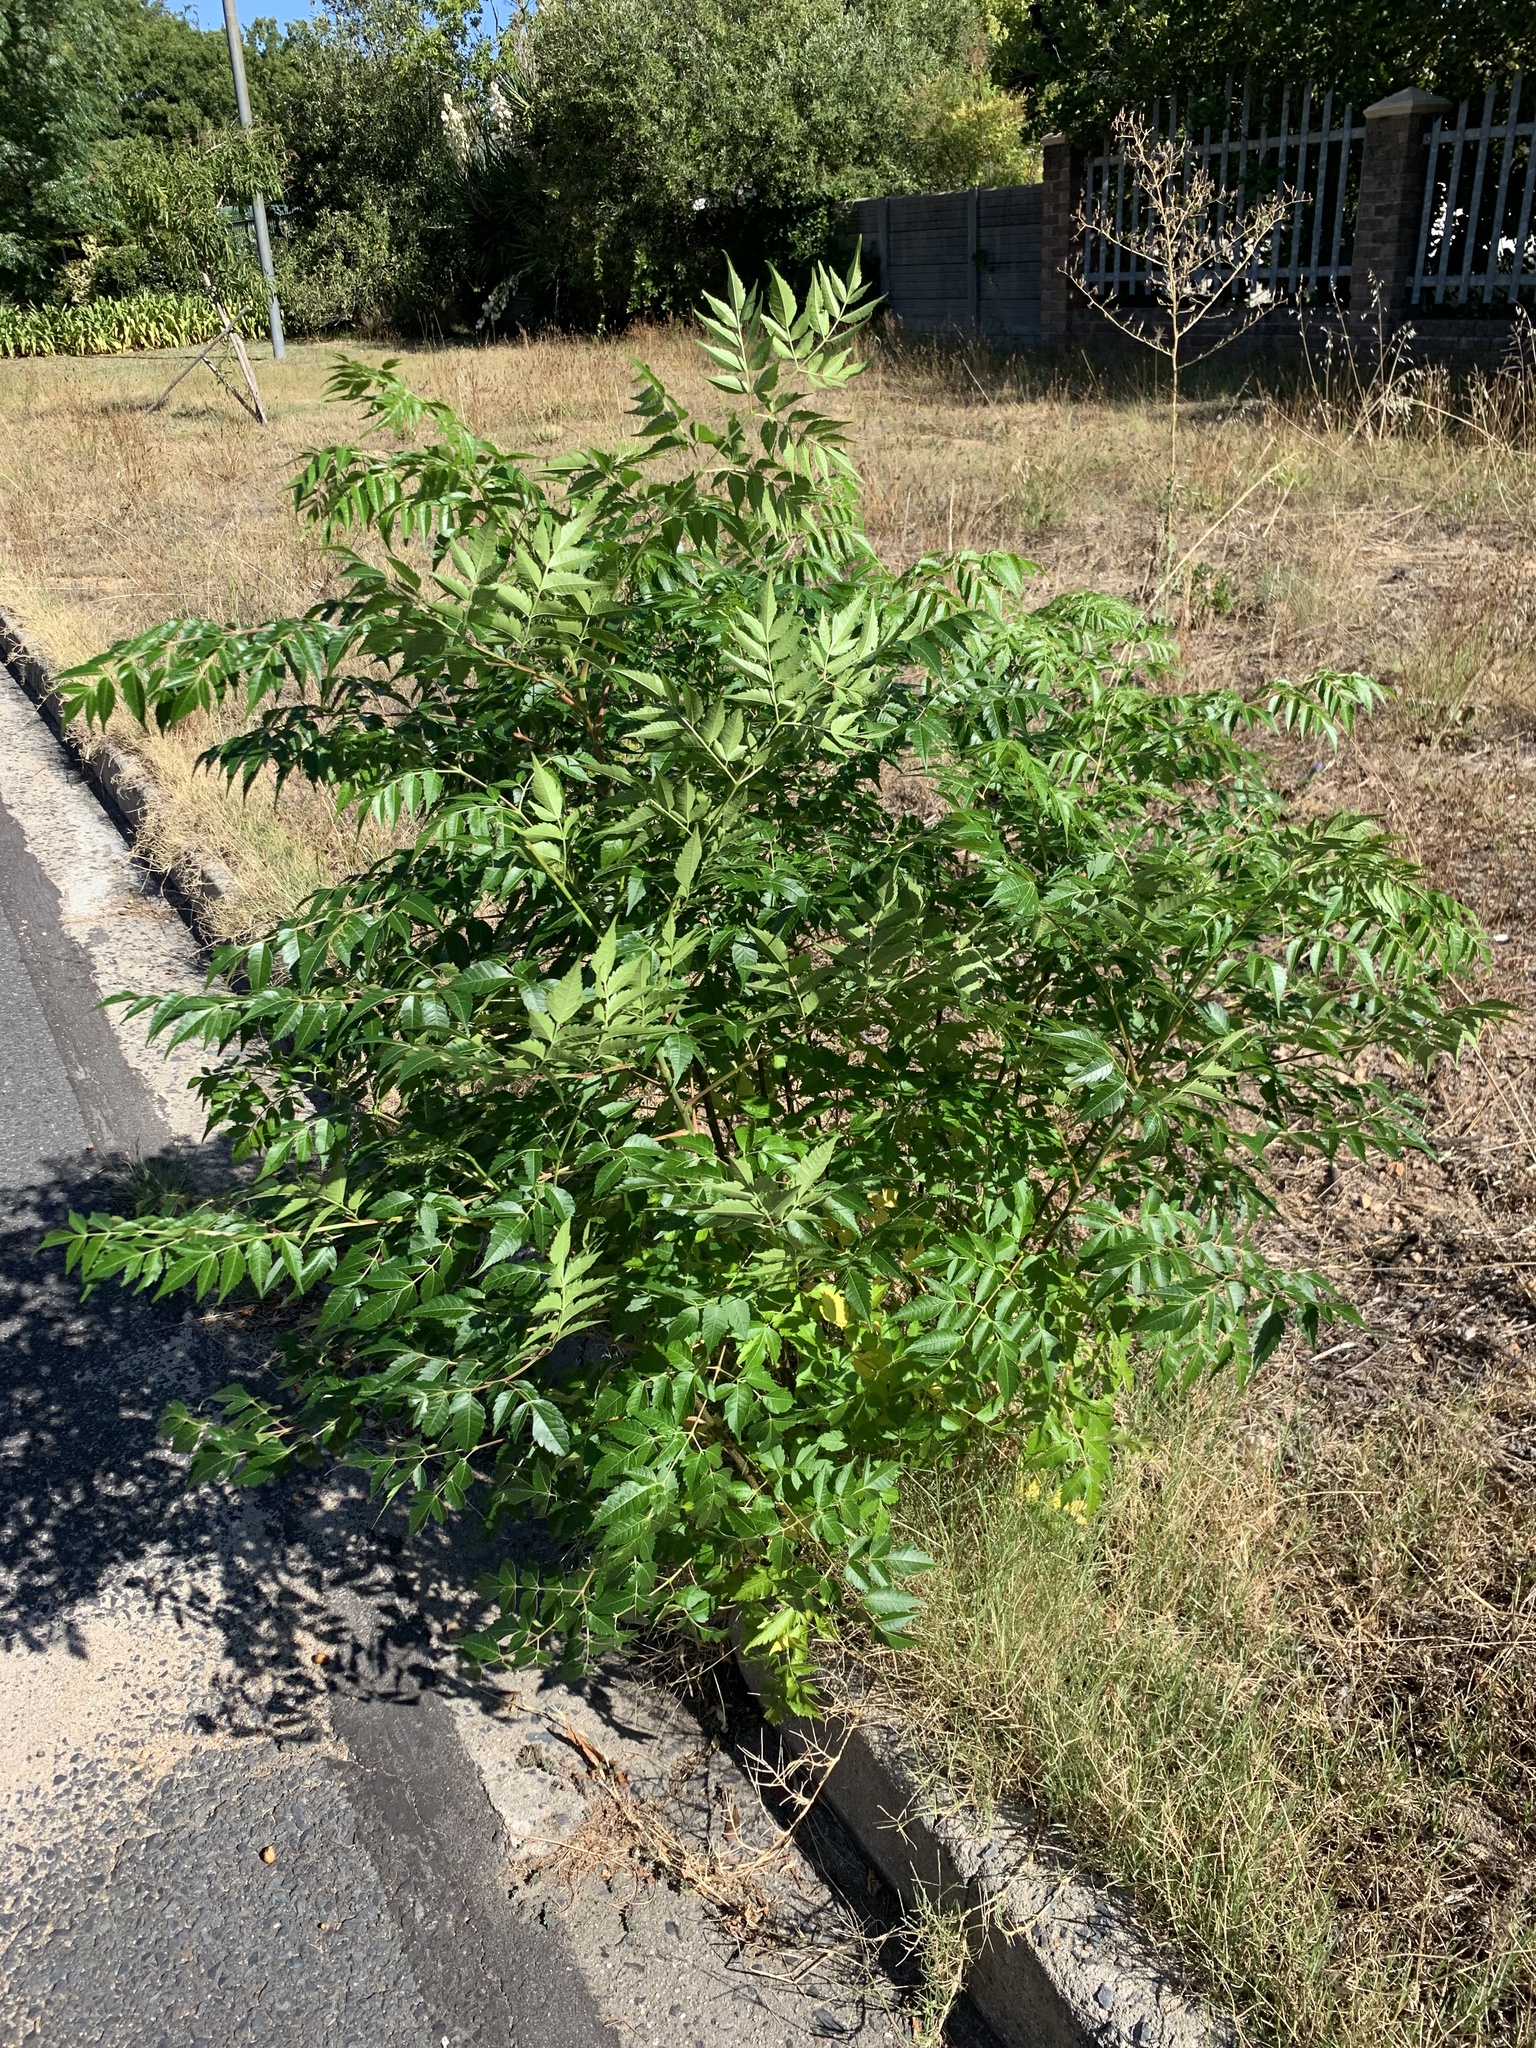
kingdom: Plantae
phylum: Tracheophyta
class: Magnoliopsida
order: Sapindales
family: Meliaceae
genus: Melia
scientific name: Melia azedarach
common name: Chinaberrytree
